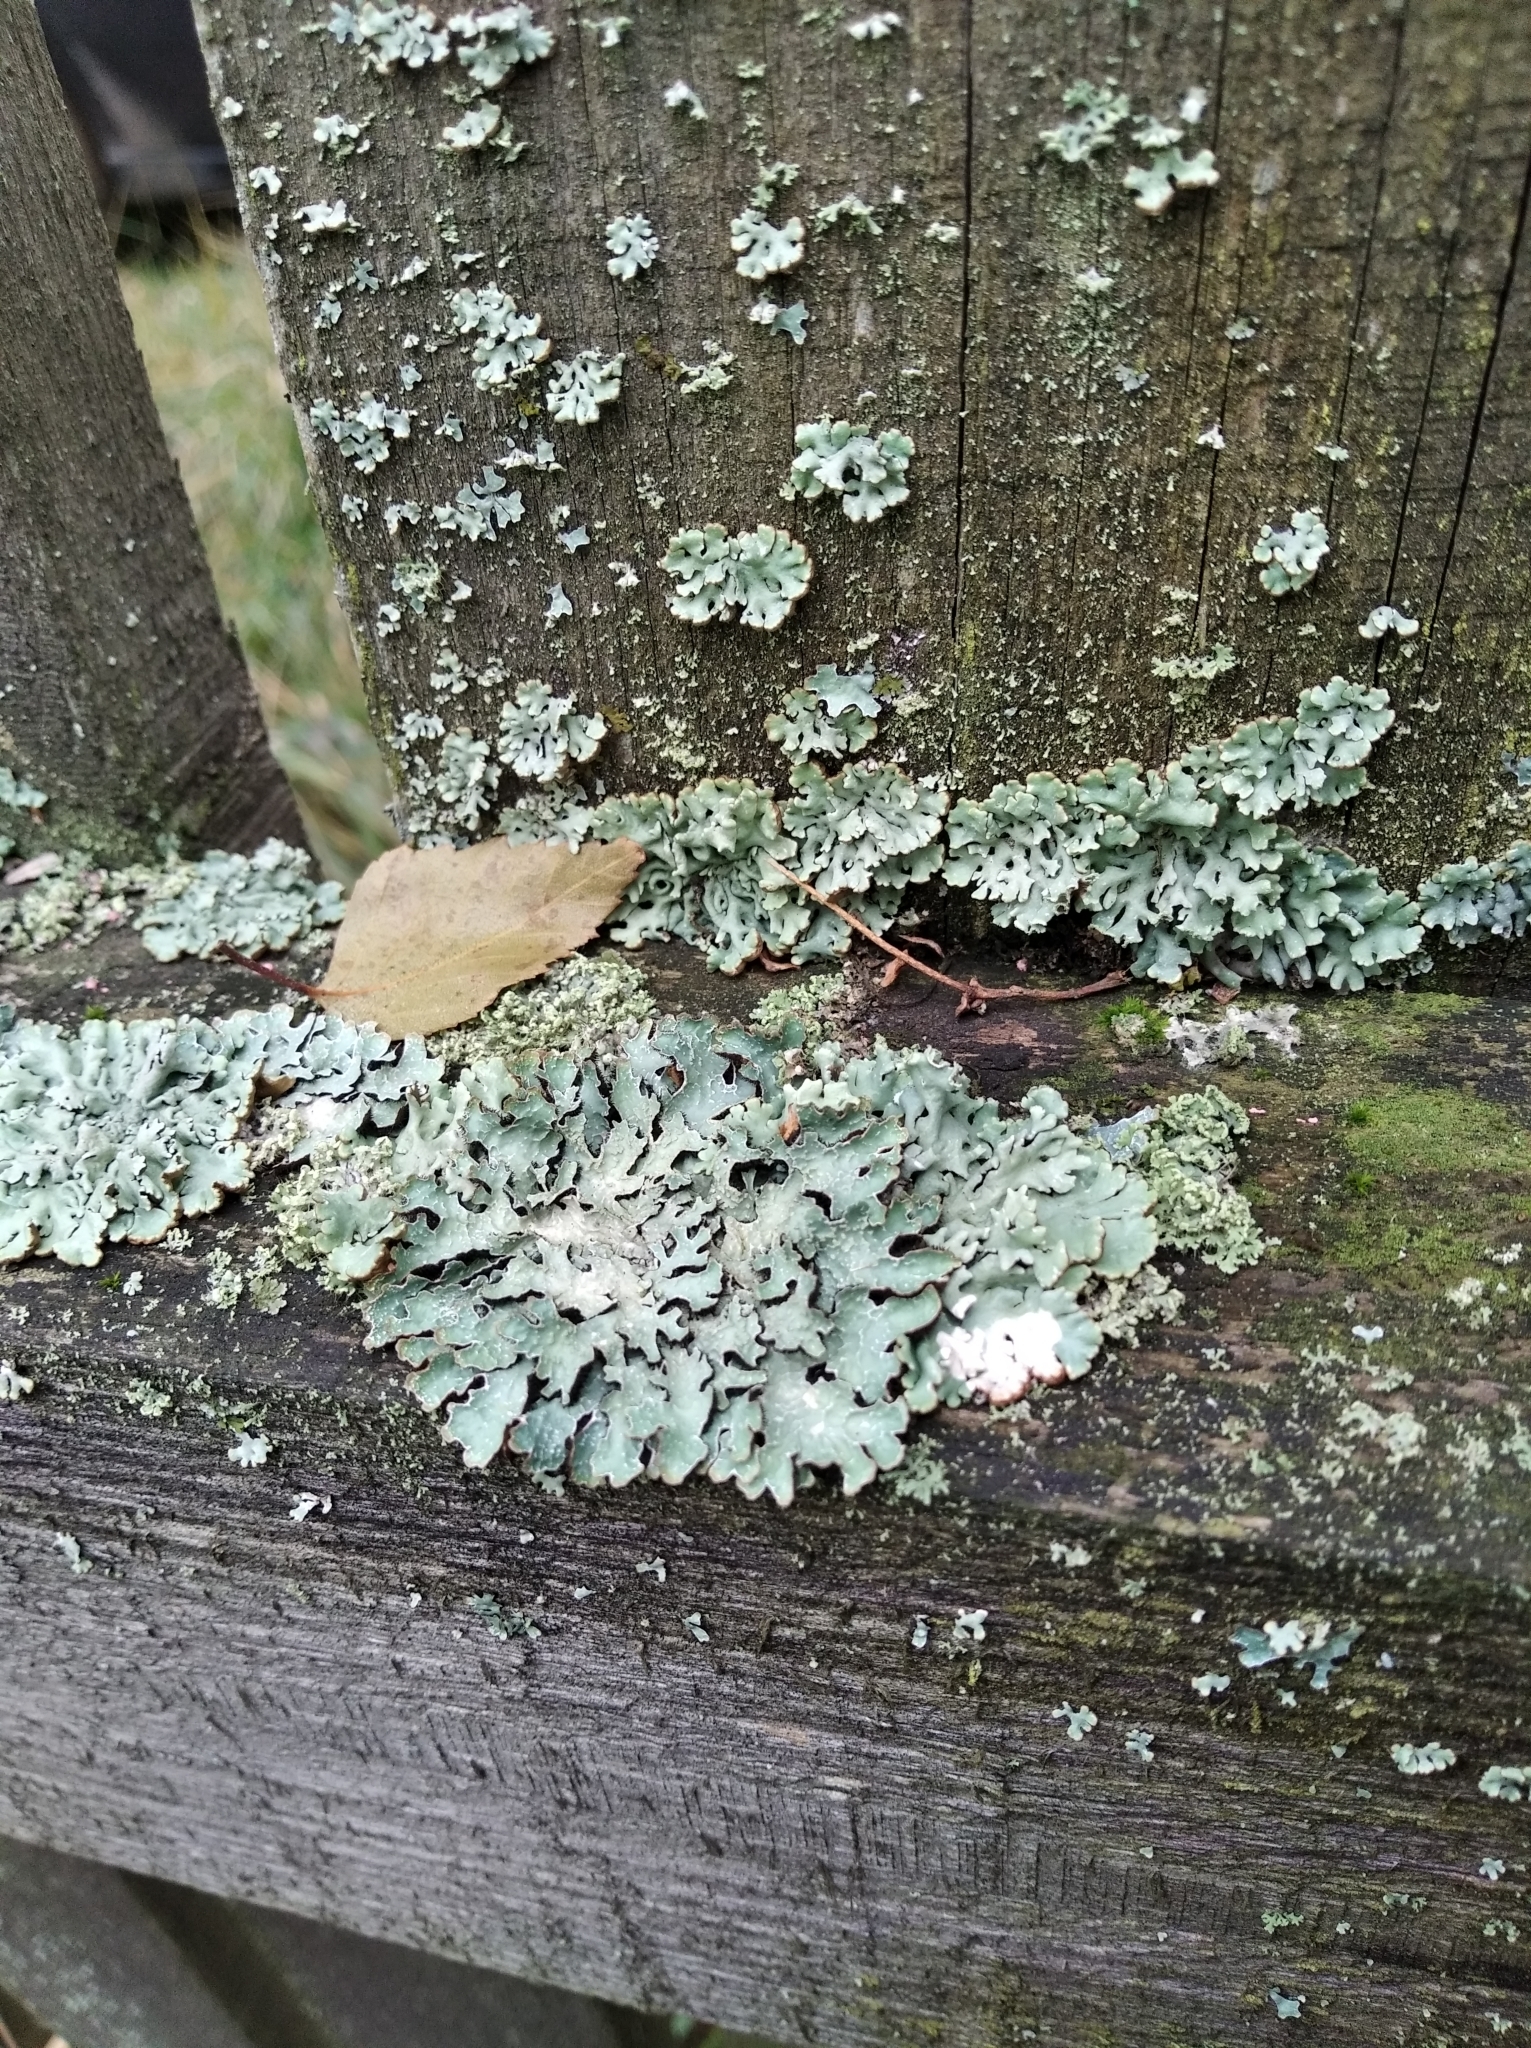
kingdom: Fungi
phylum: Ascomycota
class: Lecanoromycetes
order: Lecanorales
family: Parmeliaceae
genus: Parmelia
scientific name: Parmelia sulcata
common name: Netted shield lichen
